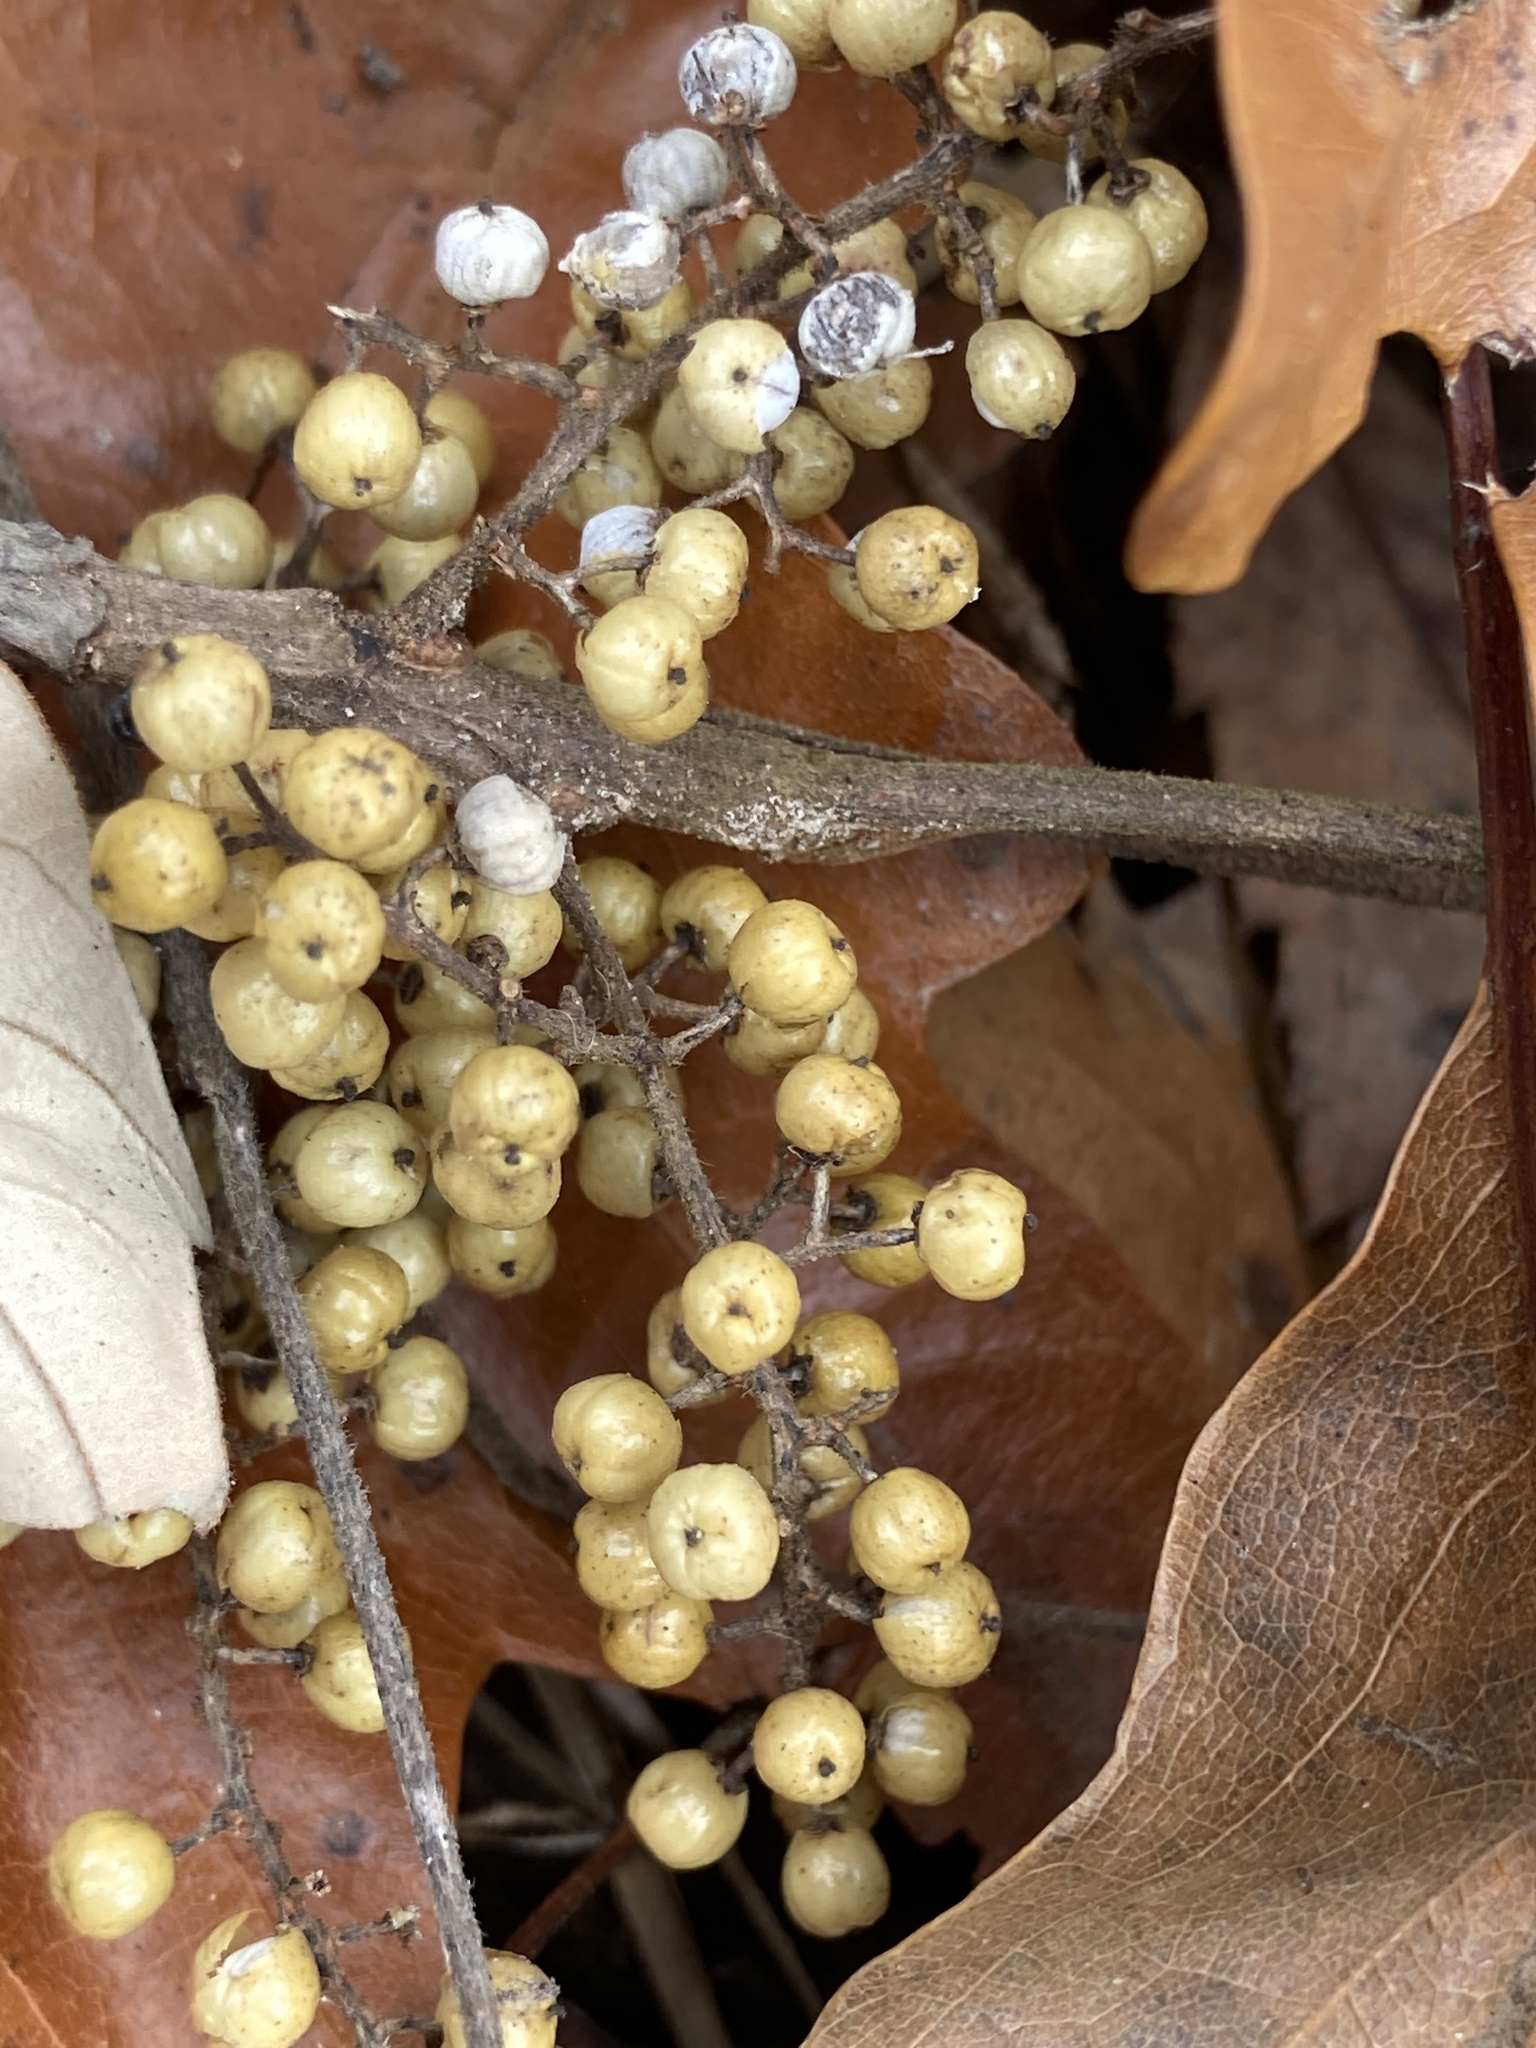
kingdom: Plantae
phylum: Tracheophyta
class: Magnoliopsida
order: Sapindales
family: Anacardiaceae
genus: Toxicodendron
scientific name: Toxicodendron radicans
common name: Poison ivy
